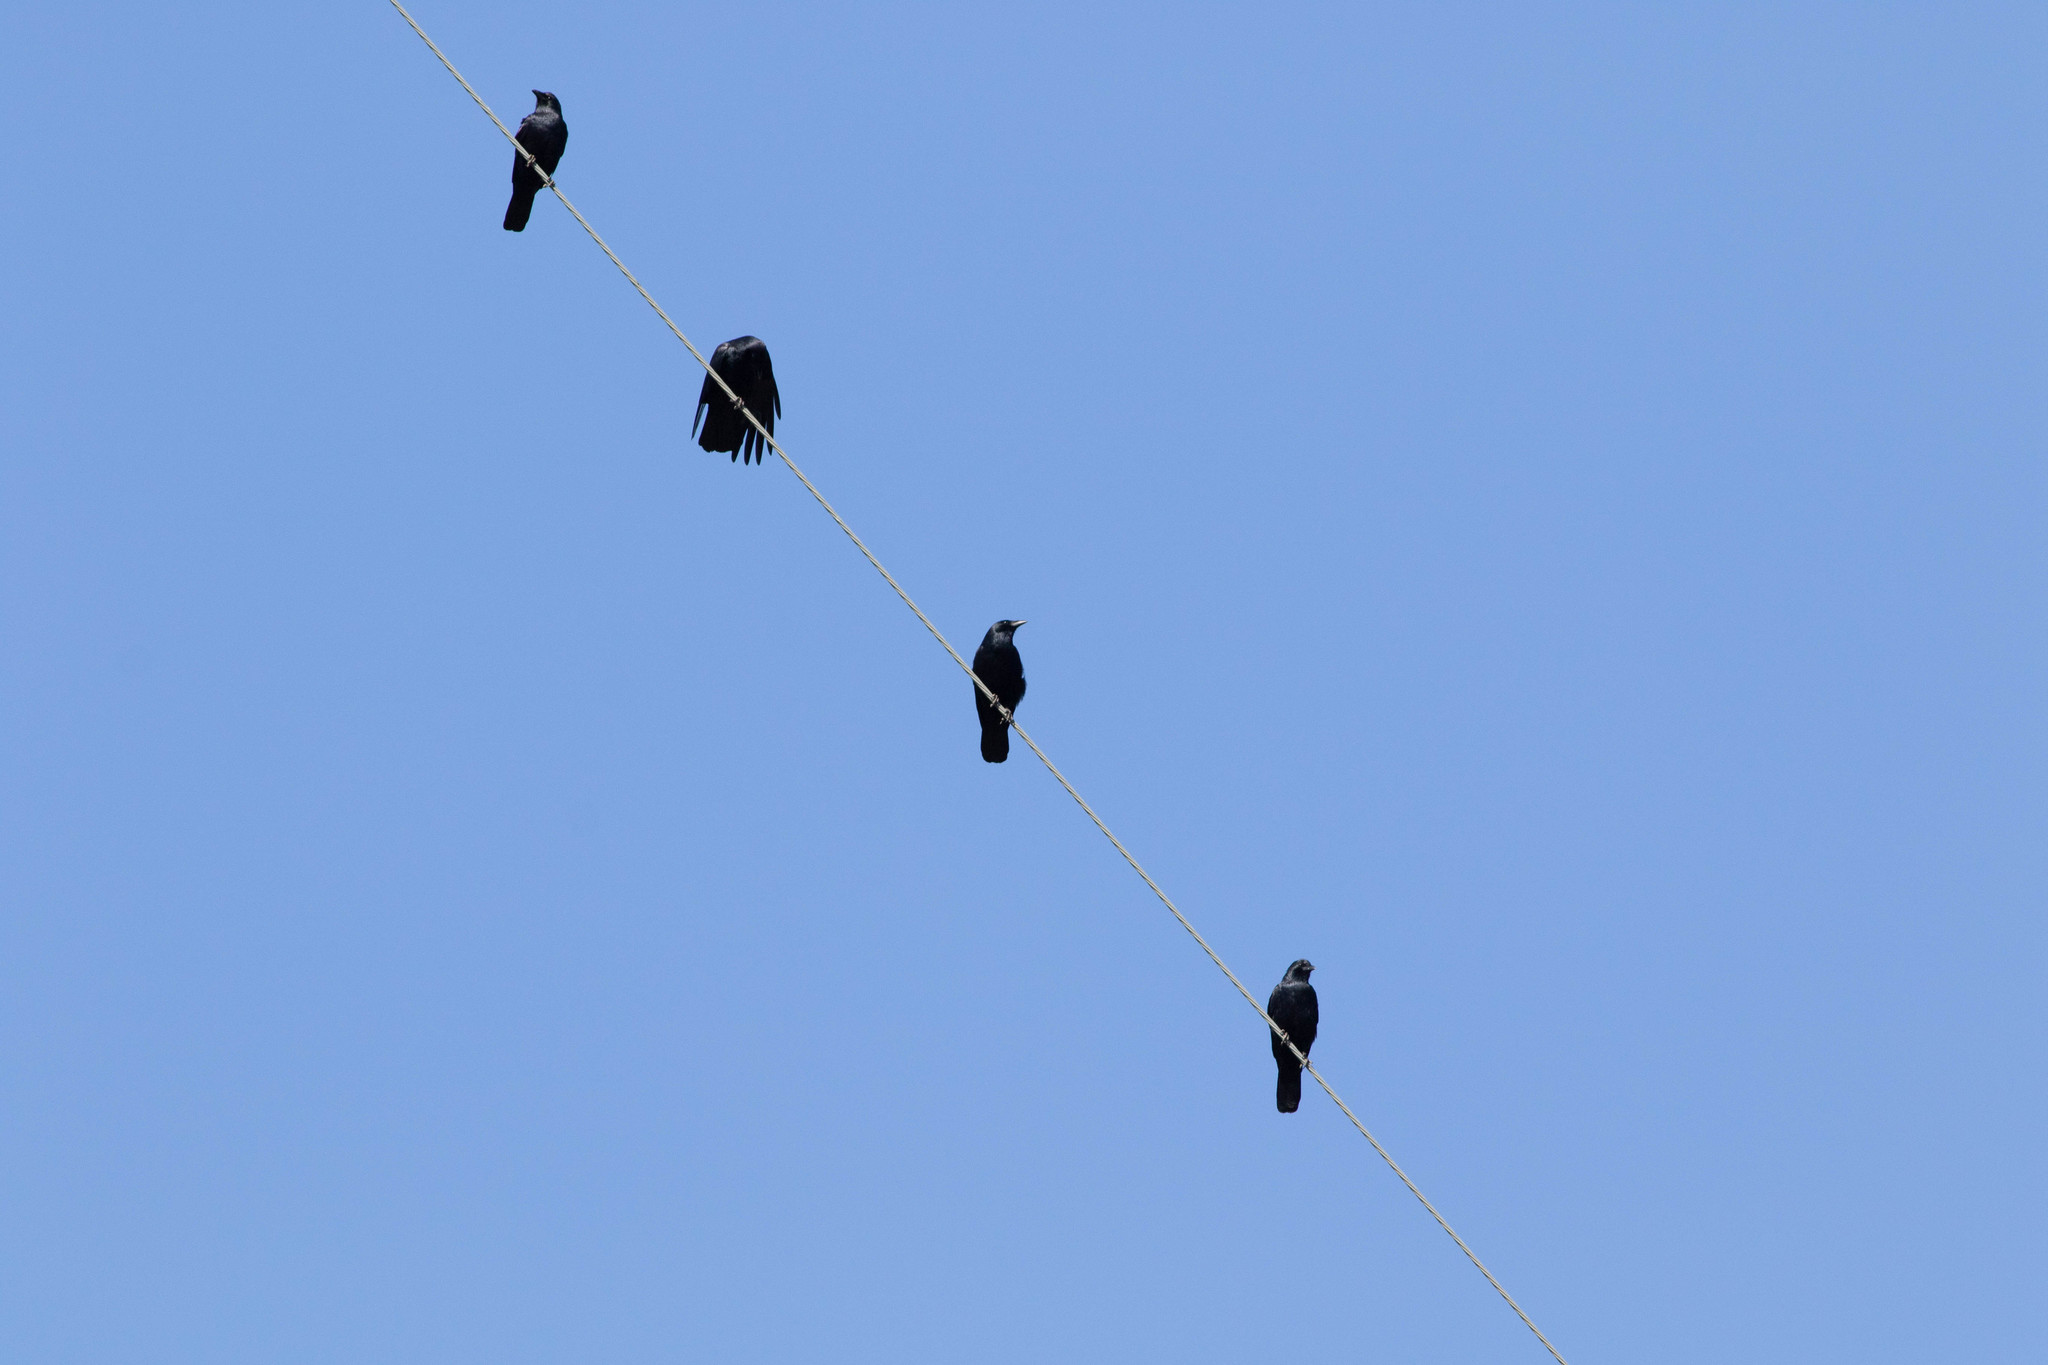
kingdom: Animalia
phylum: Chordata
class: Aves
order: Passeriformes
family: Corvidae
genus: Corvus
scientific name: Corvus ossifragus
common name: Fish crow
